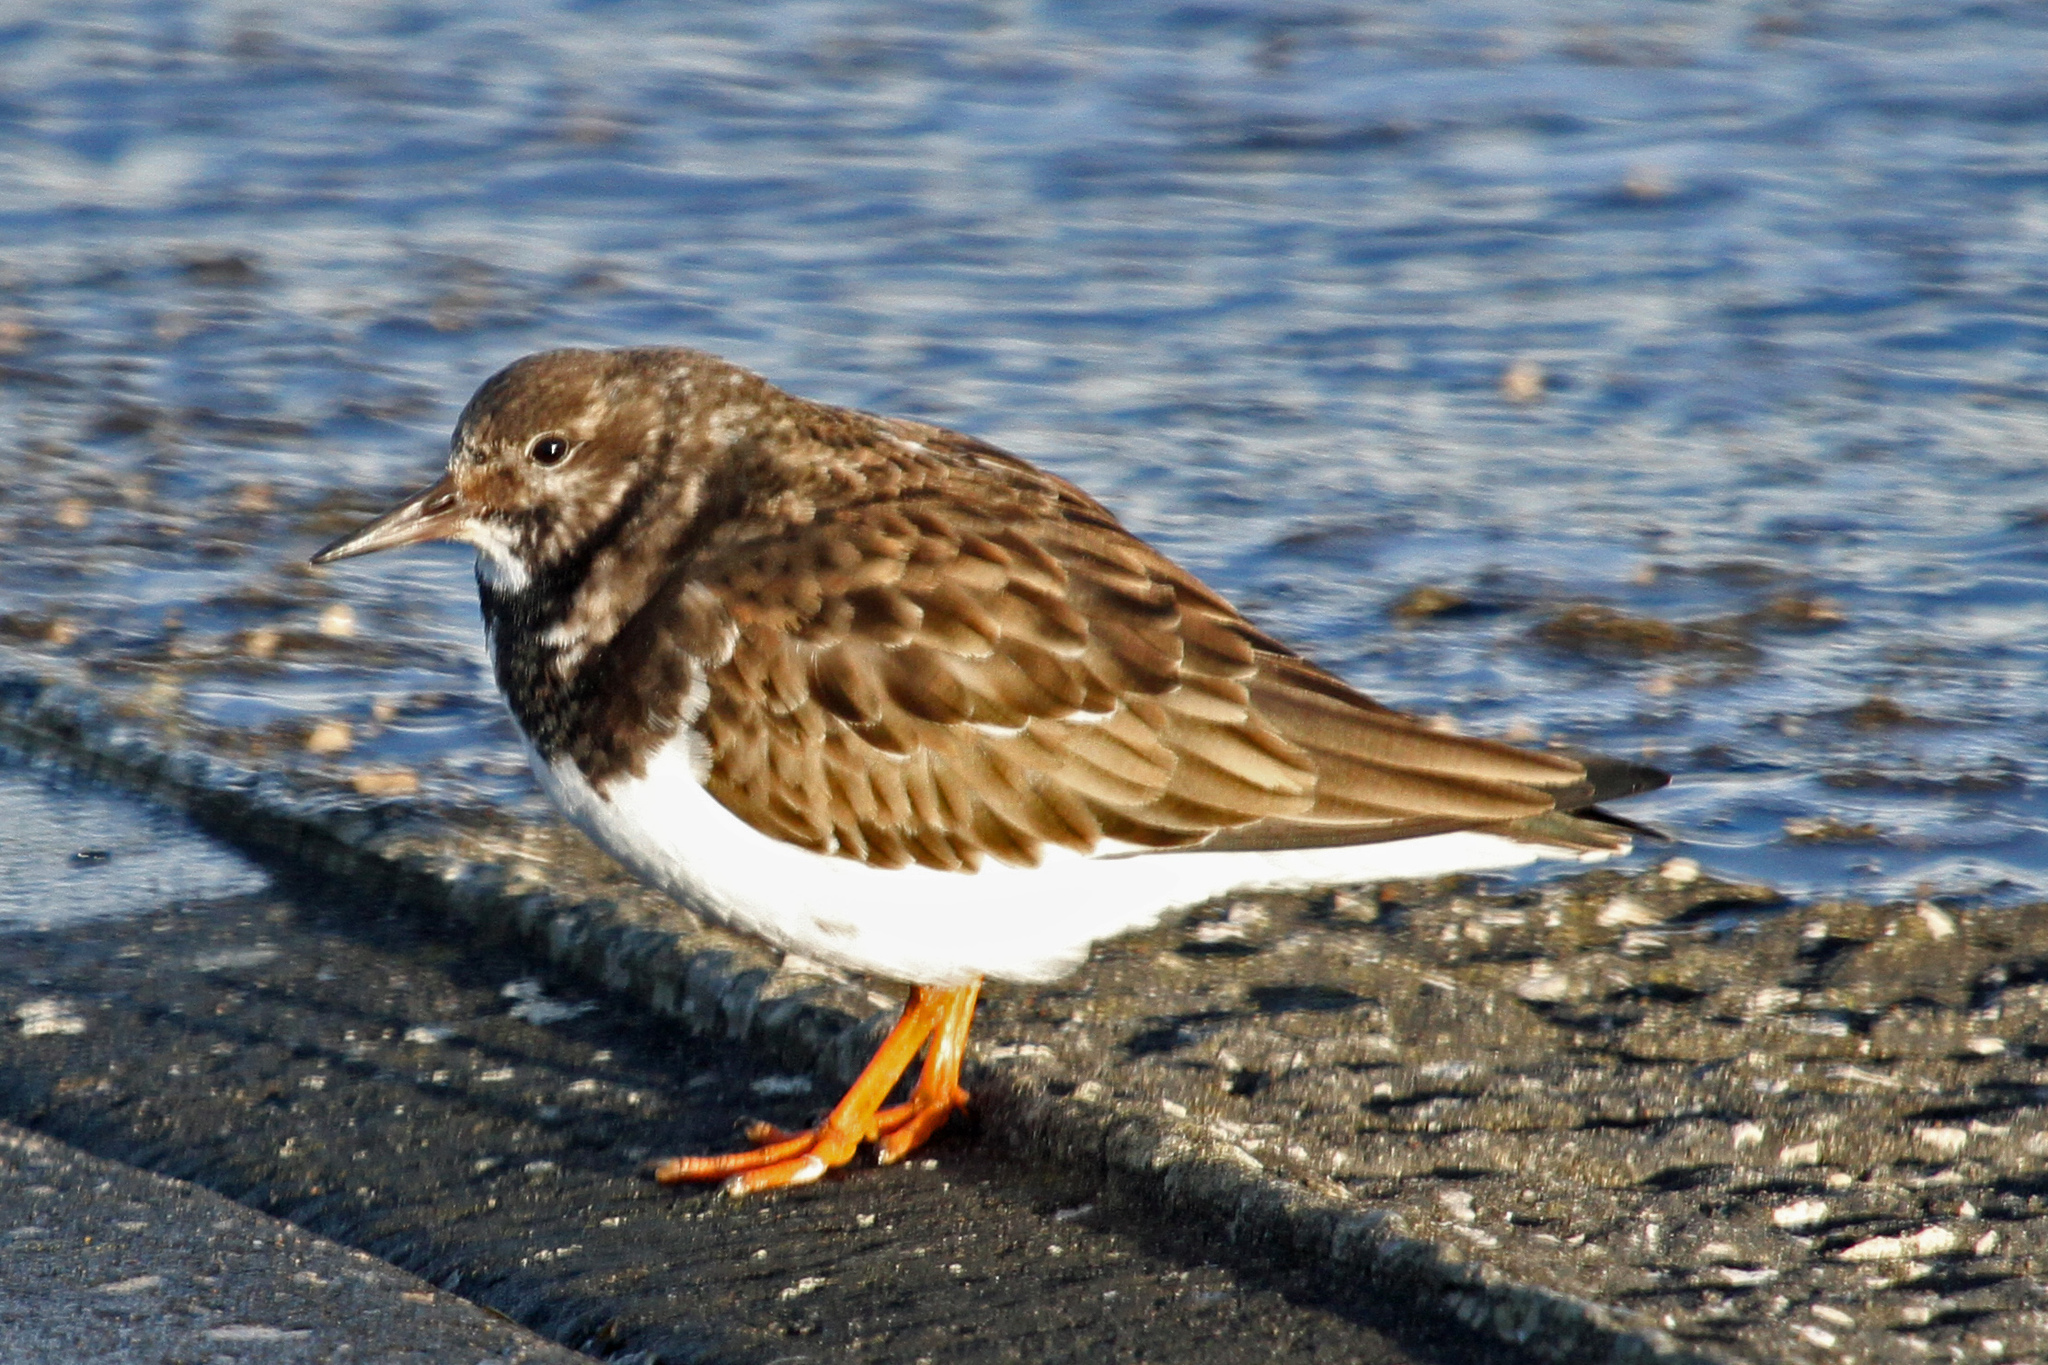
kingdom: Animalia
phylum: Chordata
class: Aves
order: Charadriiformes
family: Scolopacidae
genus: Arenaria
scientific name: Arenaria interpres
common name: Ruddy turnstone
